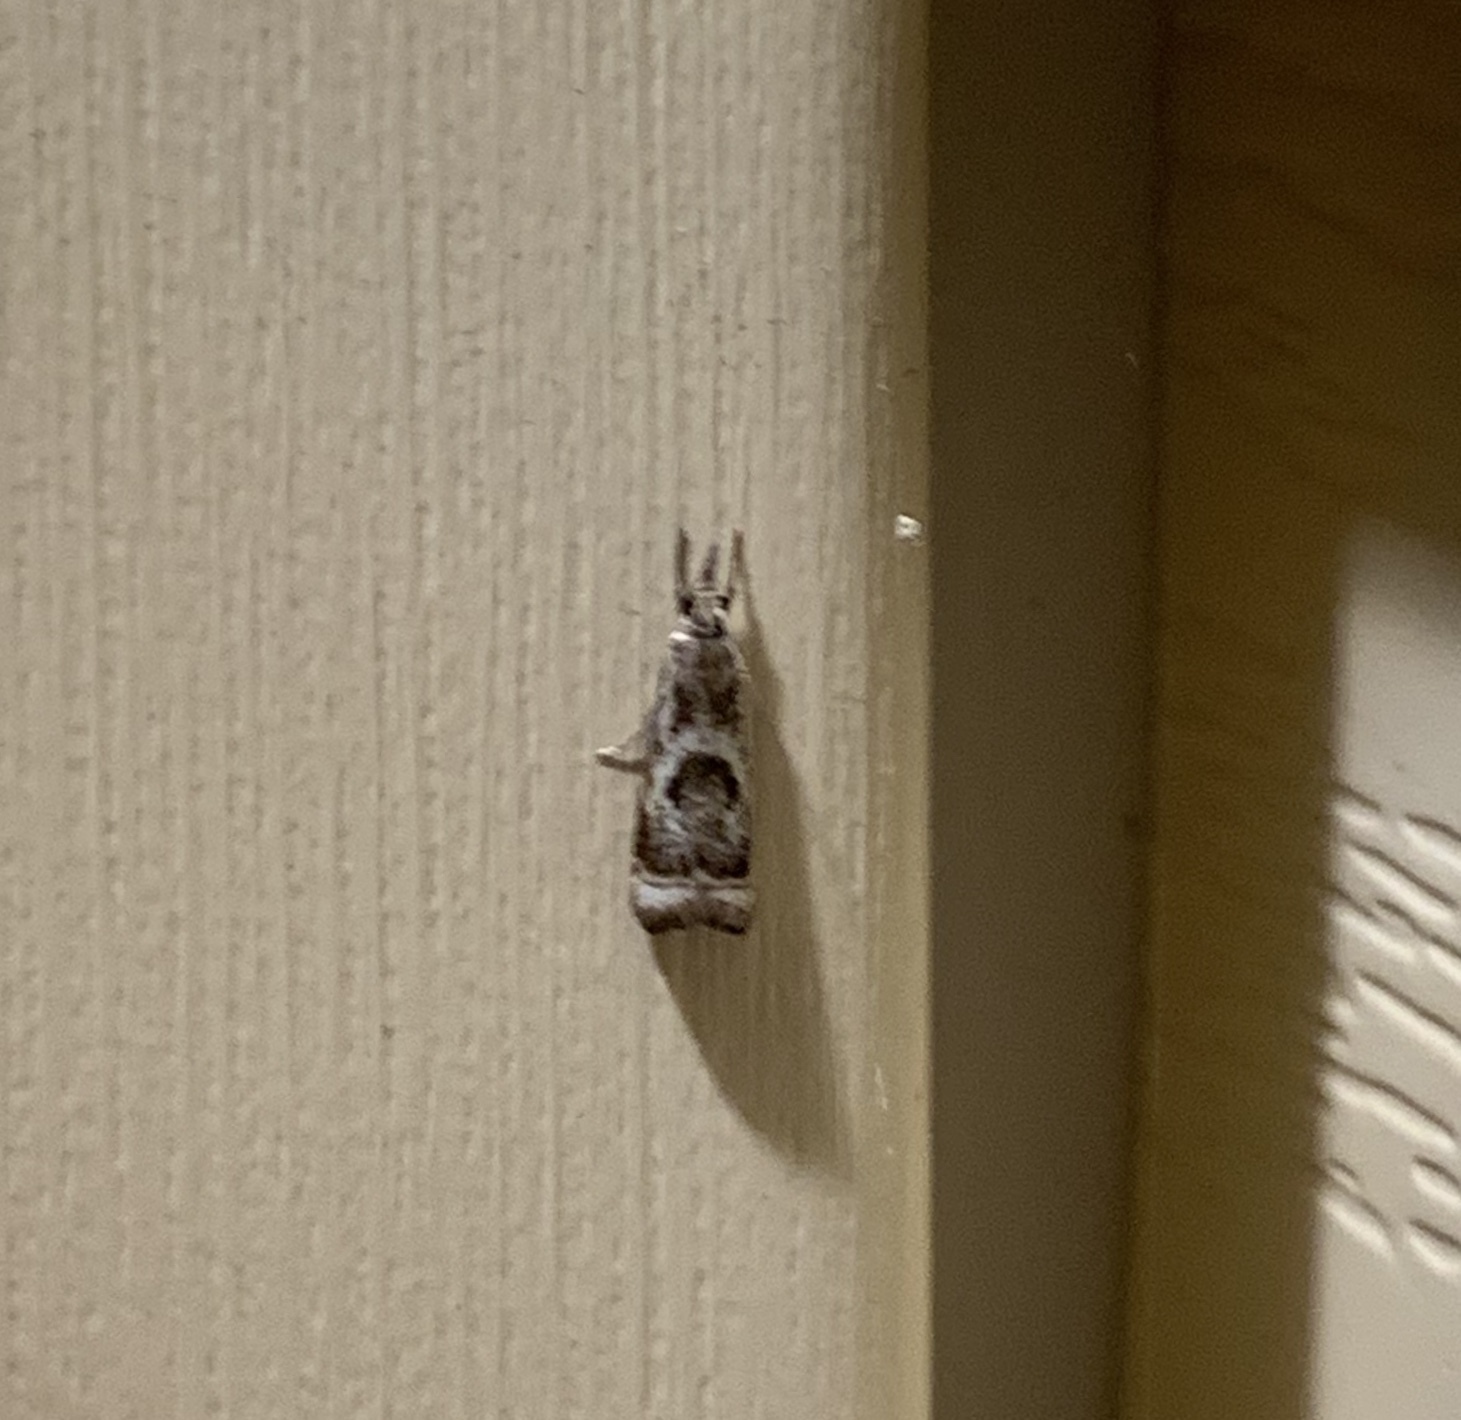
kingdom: Animalia
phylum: Arthropoda
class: Insecta
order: Lepidoptera
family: Crambidae
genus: Microcrambus
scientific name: Microcrambus elegans
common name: Elegant grass-veneer
